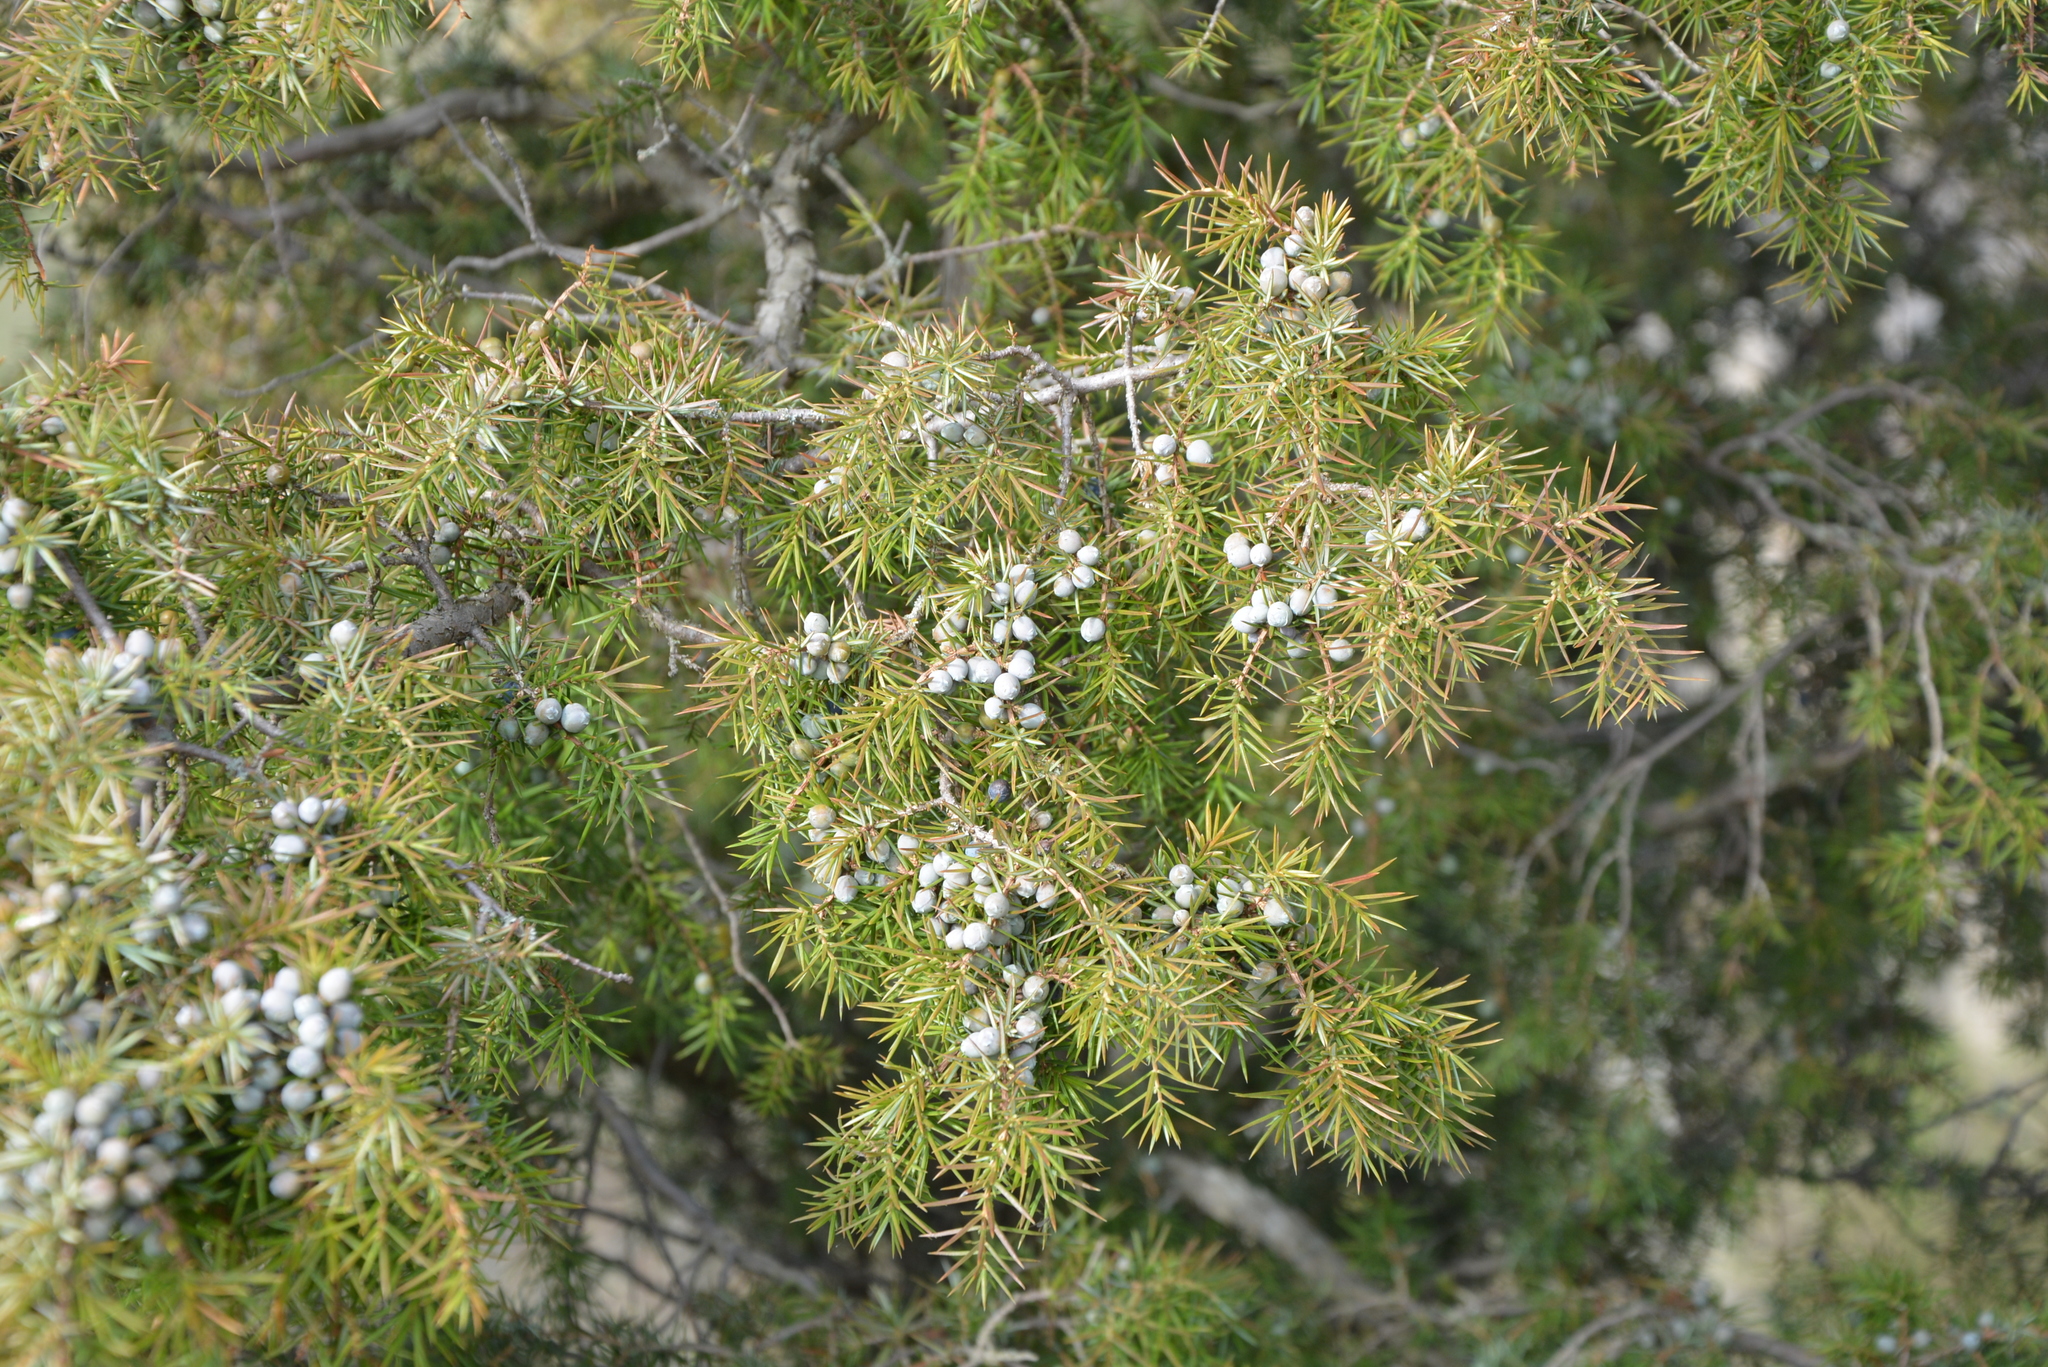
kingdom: Plantae
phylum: Tracheophyta
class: Pinopsida
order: Pinales
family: Cupressaceae
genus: Juniperus
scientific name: Juniperus communis
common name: Common juniper
